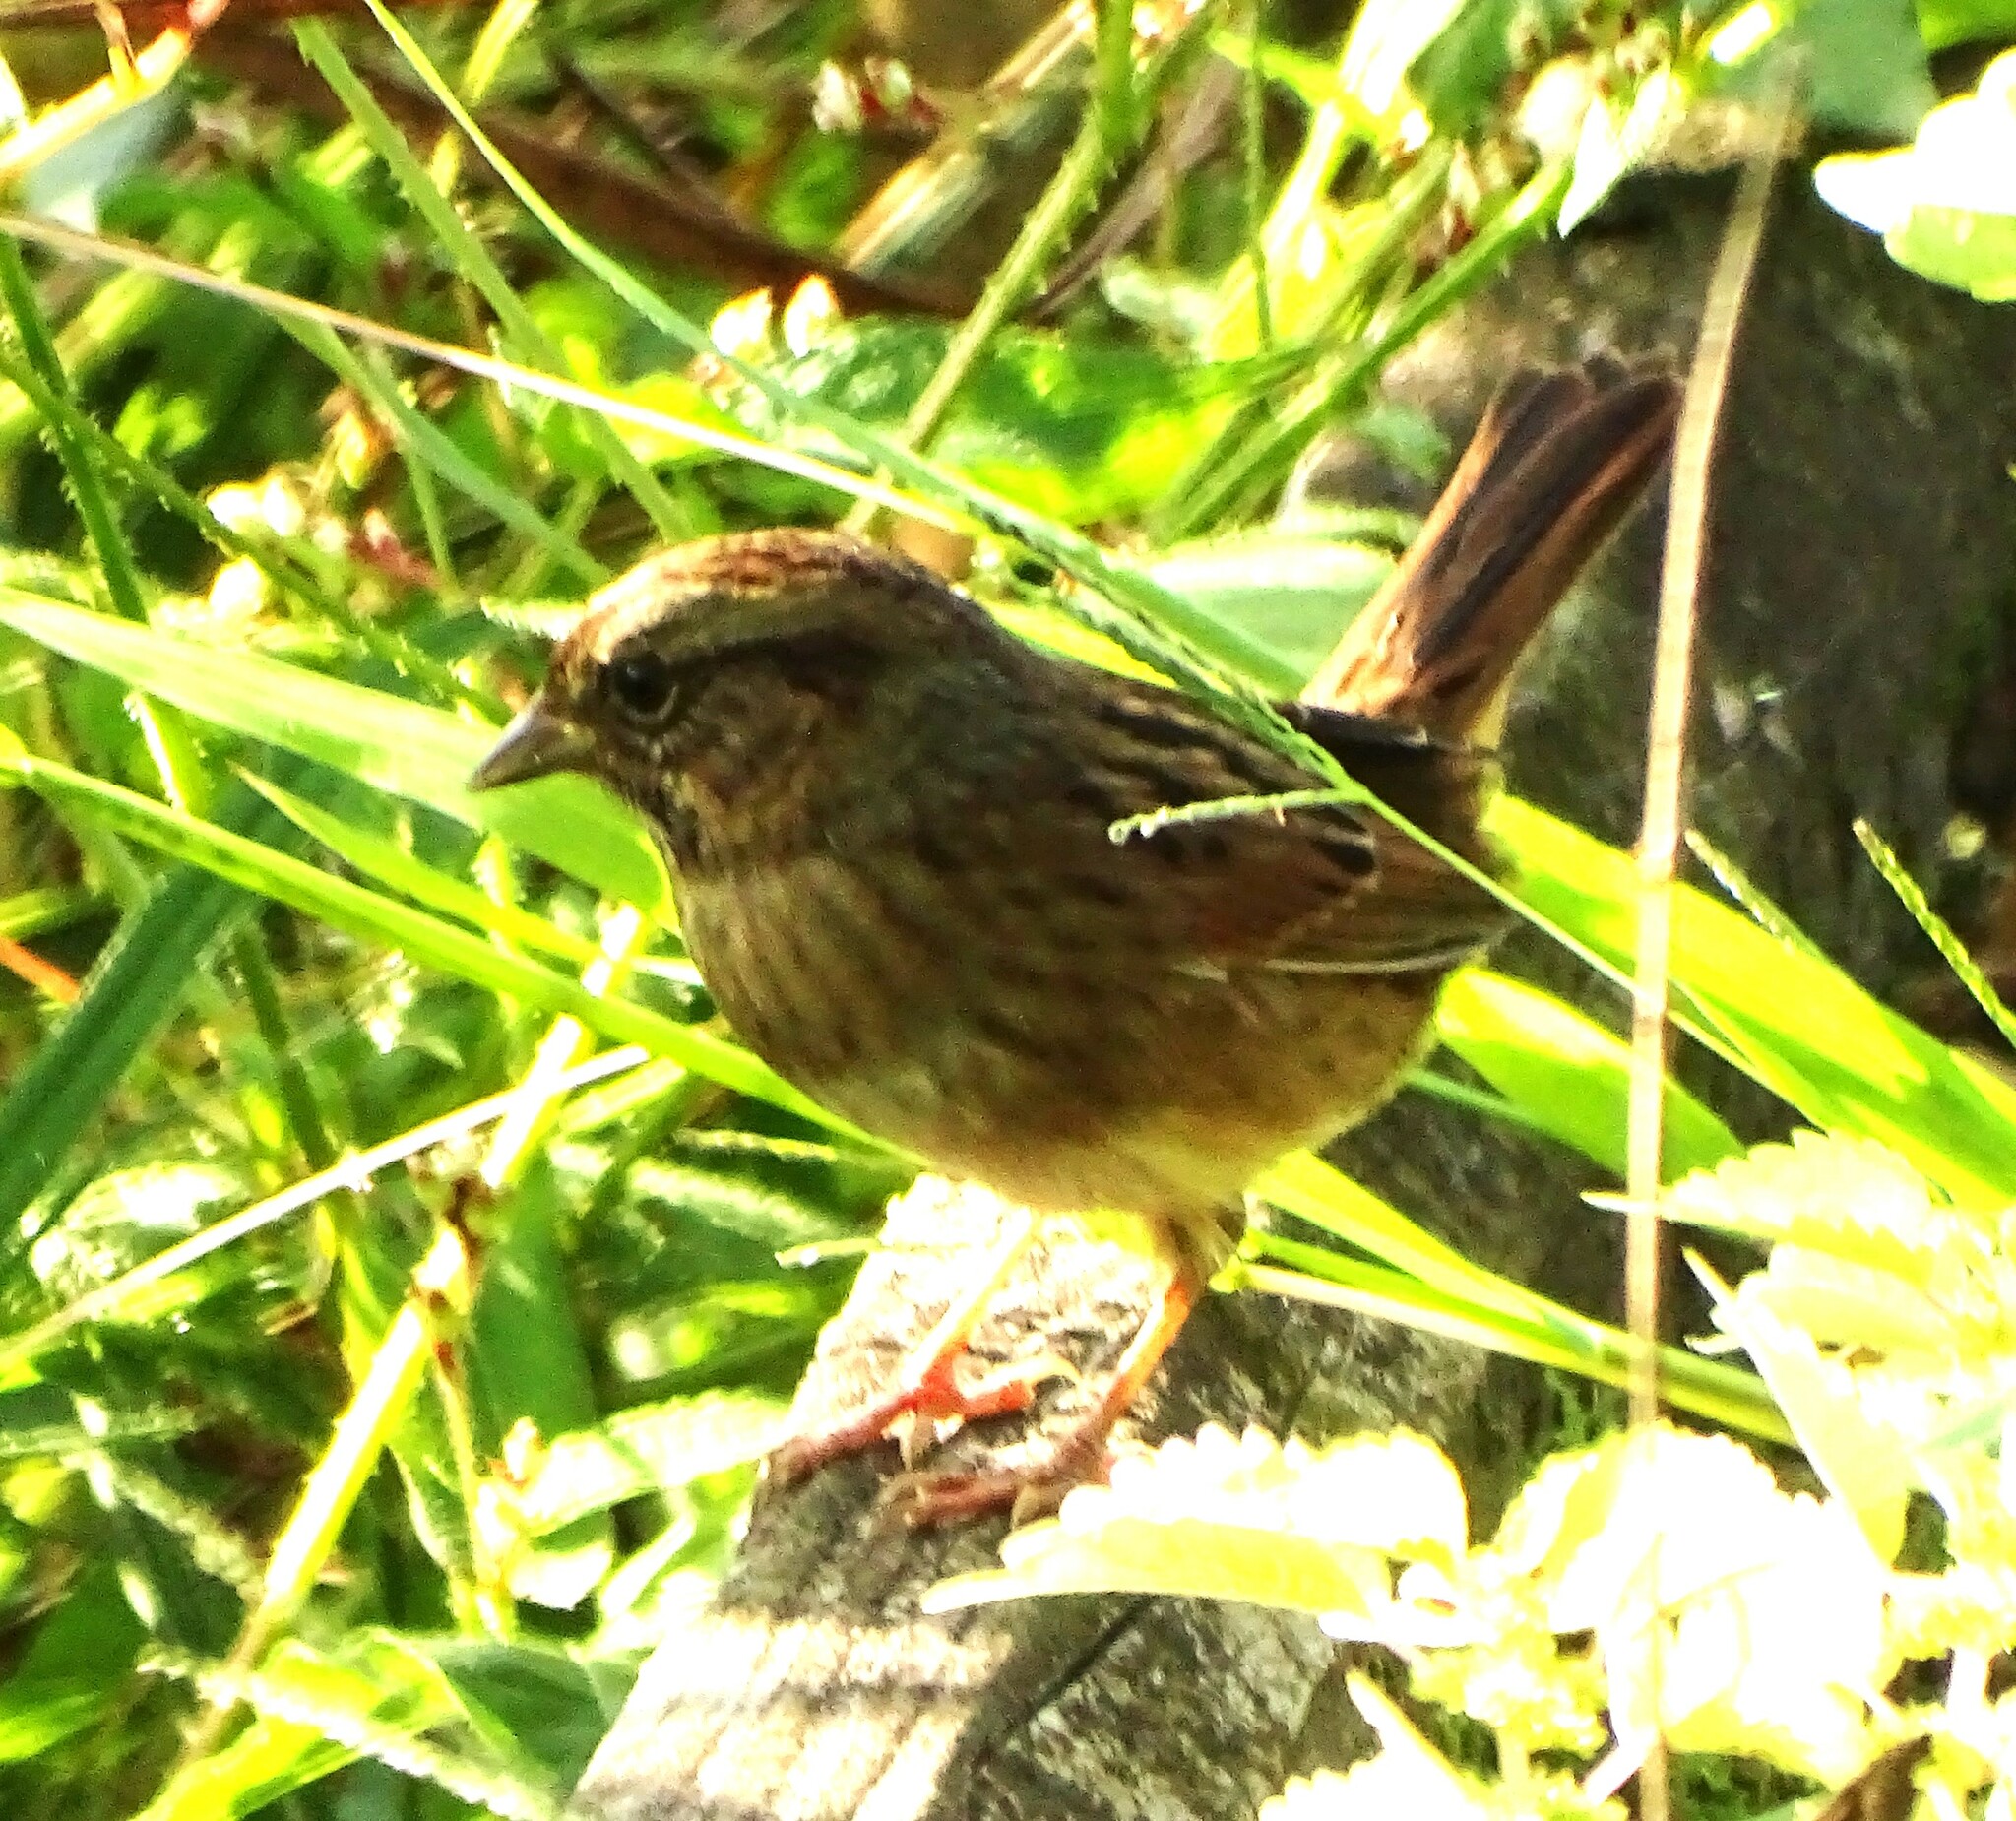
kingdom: Animalia
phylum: Chordata
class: Aves
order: Passeriformes
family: Passerellidae
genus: Melospiza
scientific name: Melospiza georgiana
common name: Swamp sparrow
